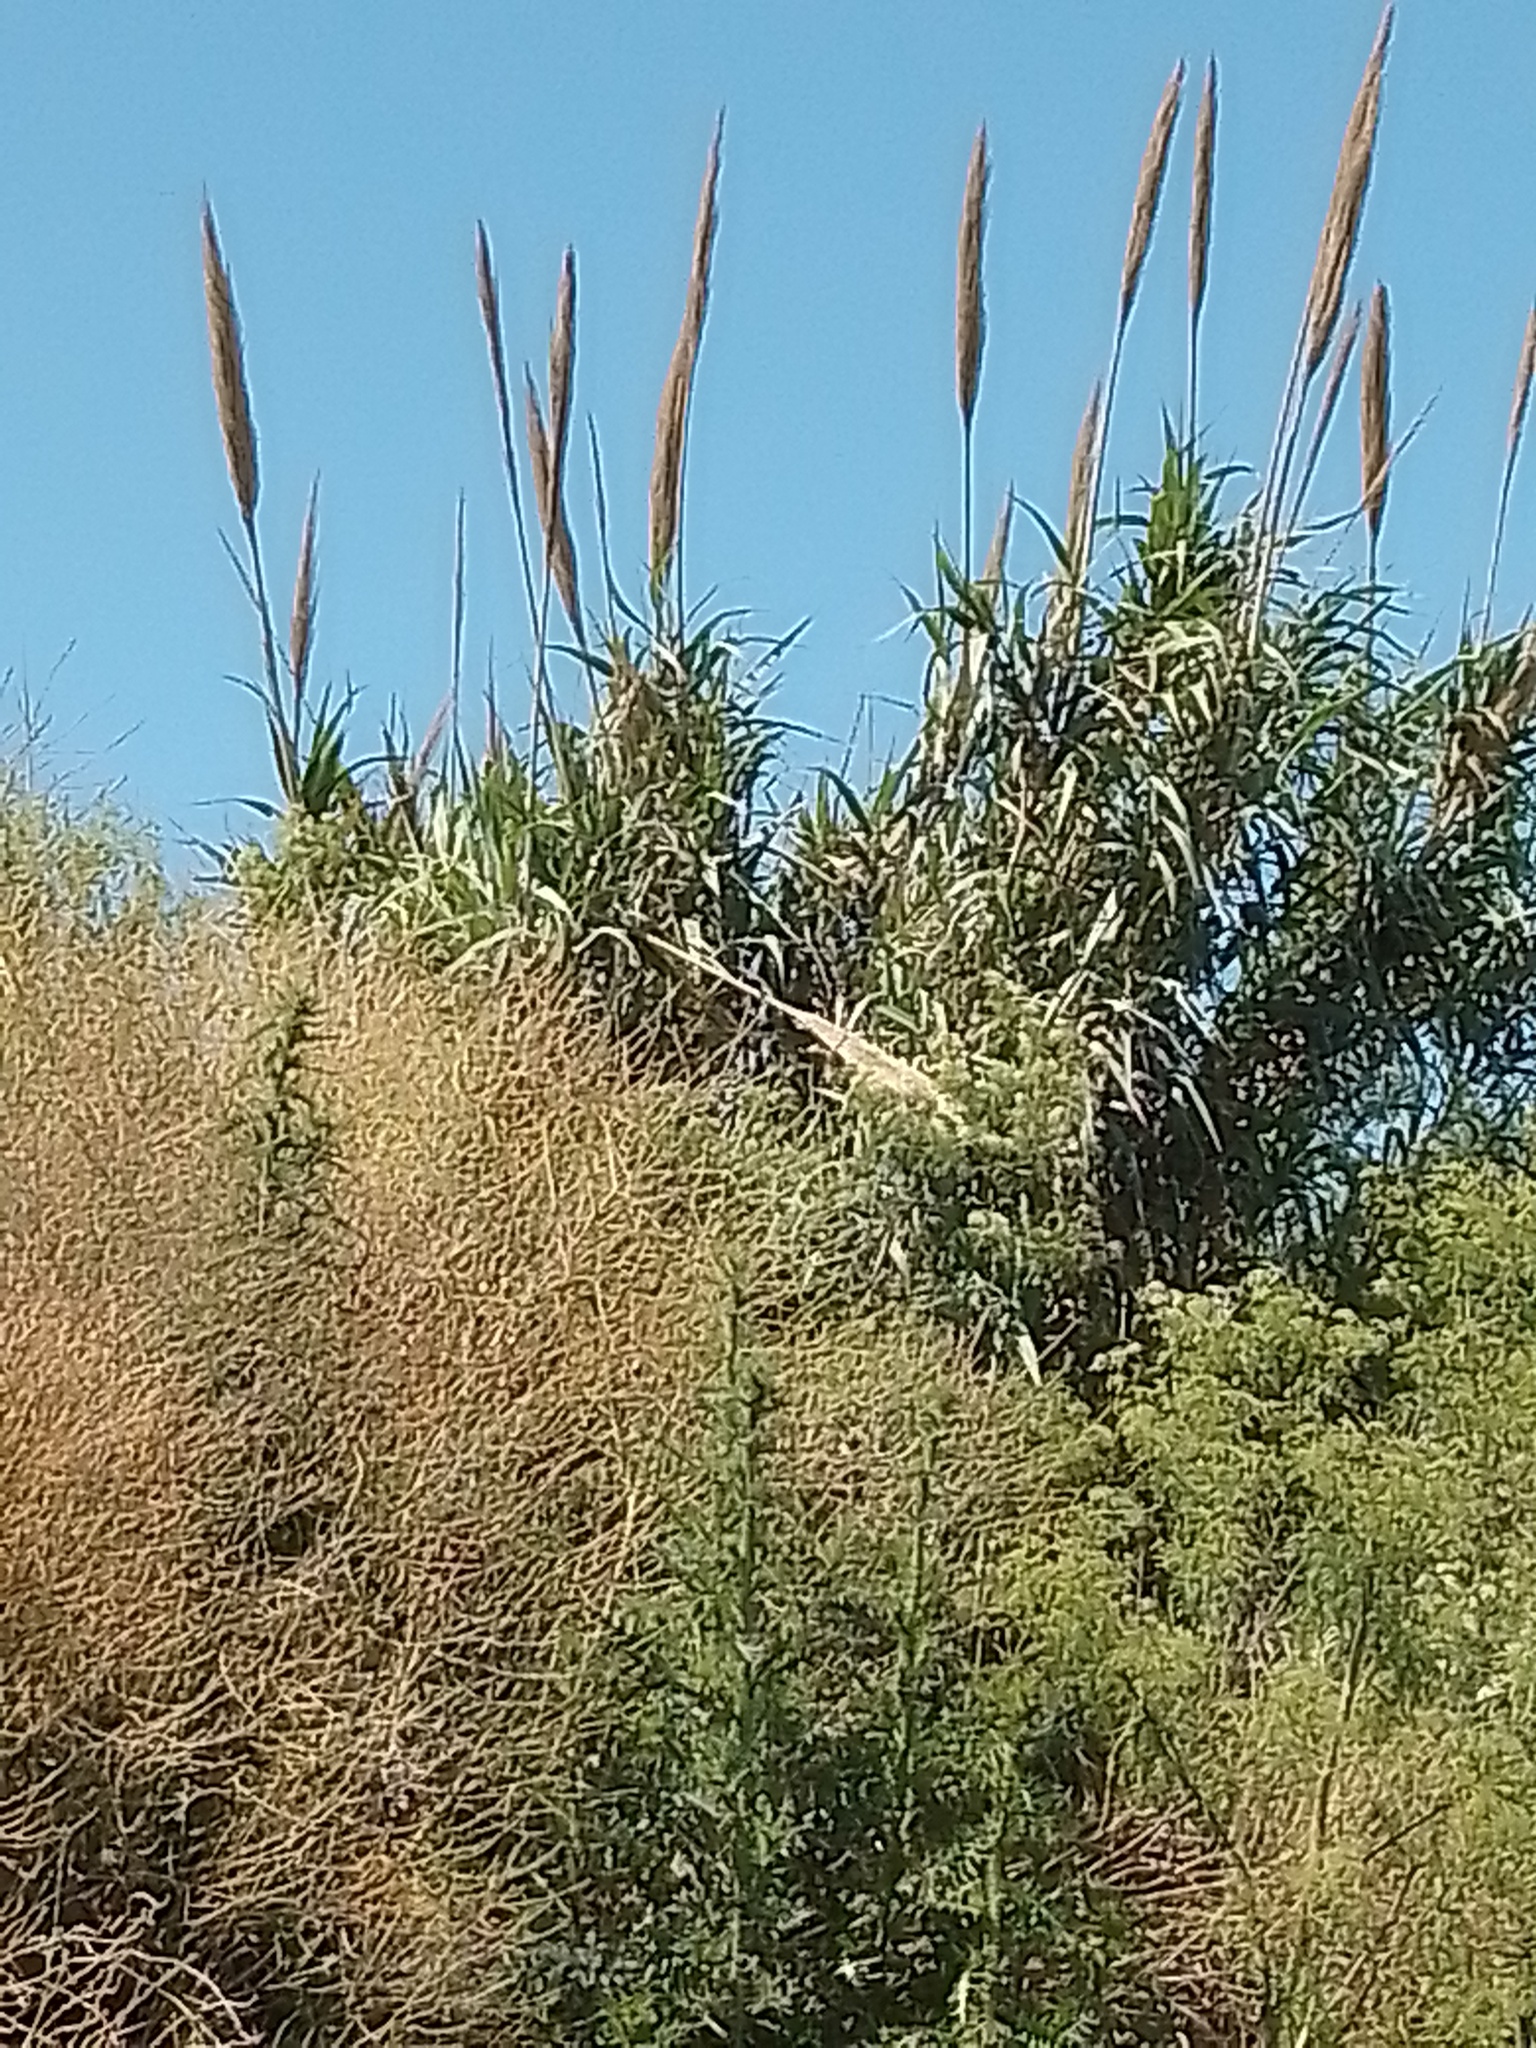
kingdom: Plantae
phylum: Tracheophyta
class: Liliopsida
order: Poales
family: Poaceae
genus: Arundo
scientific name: Arundo donax
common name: Giant reed
